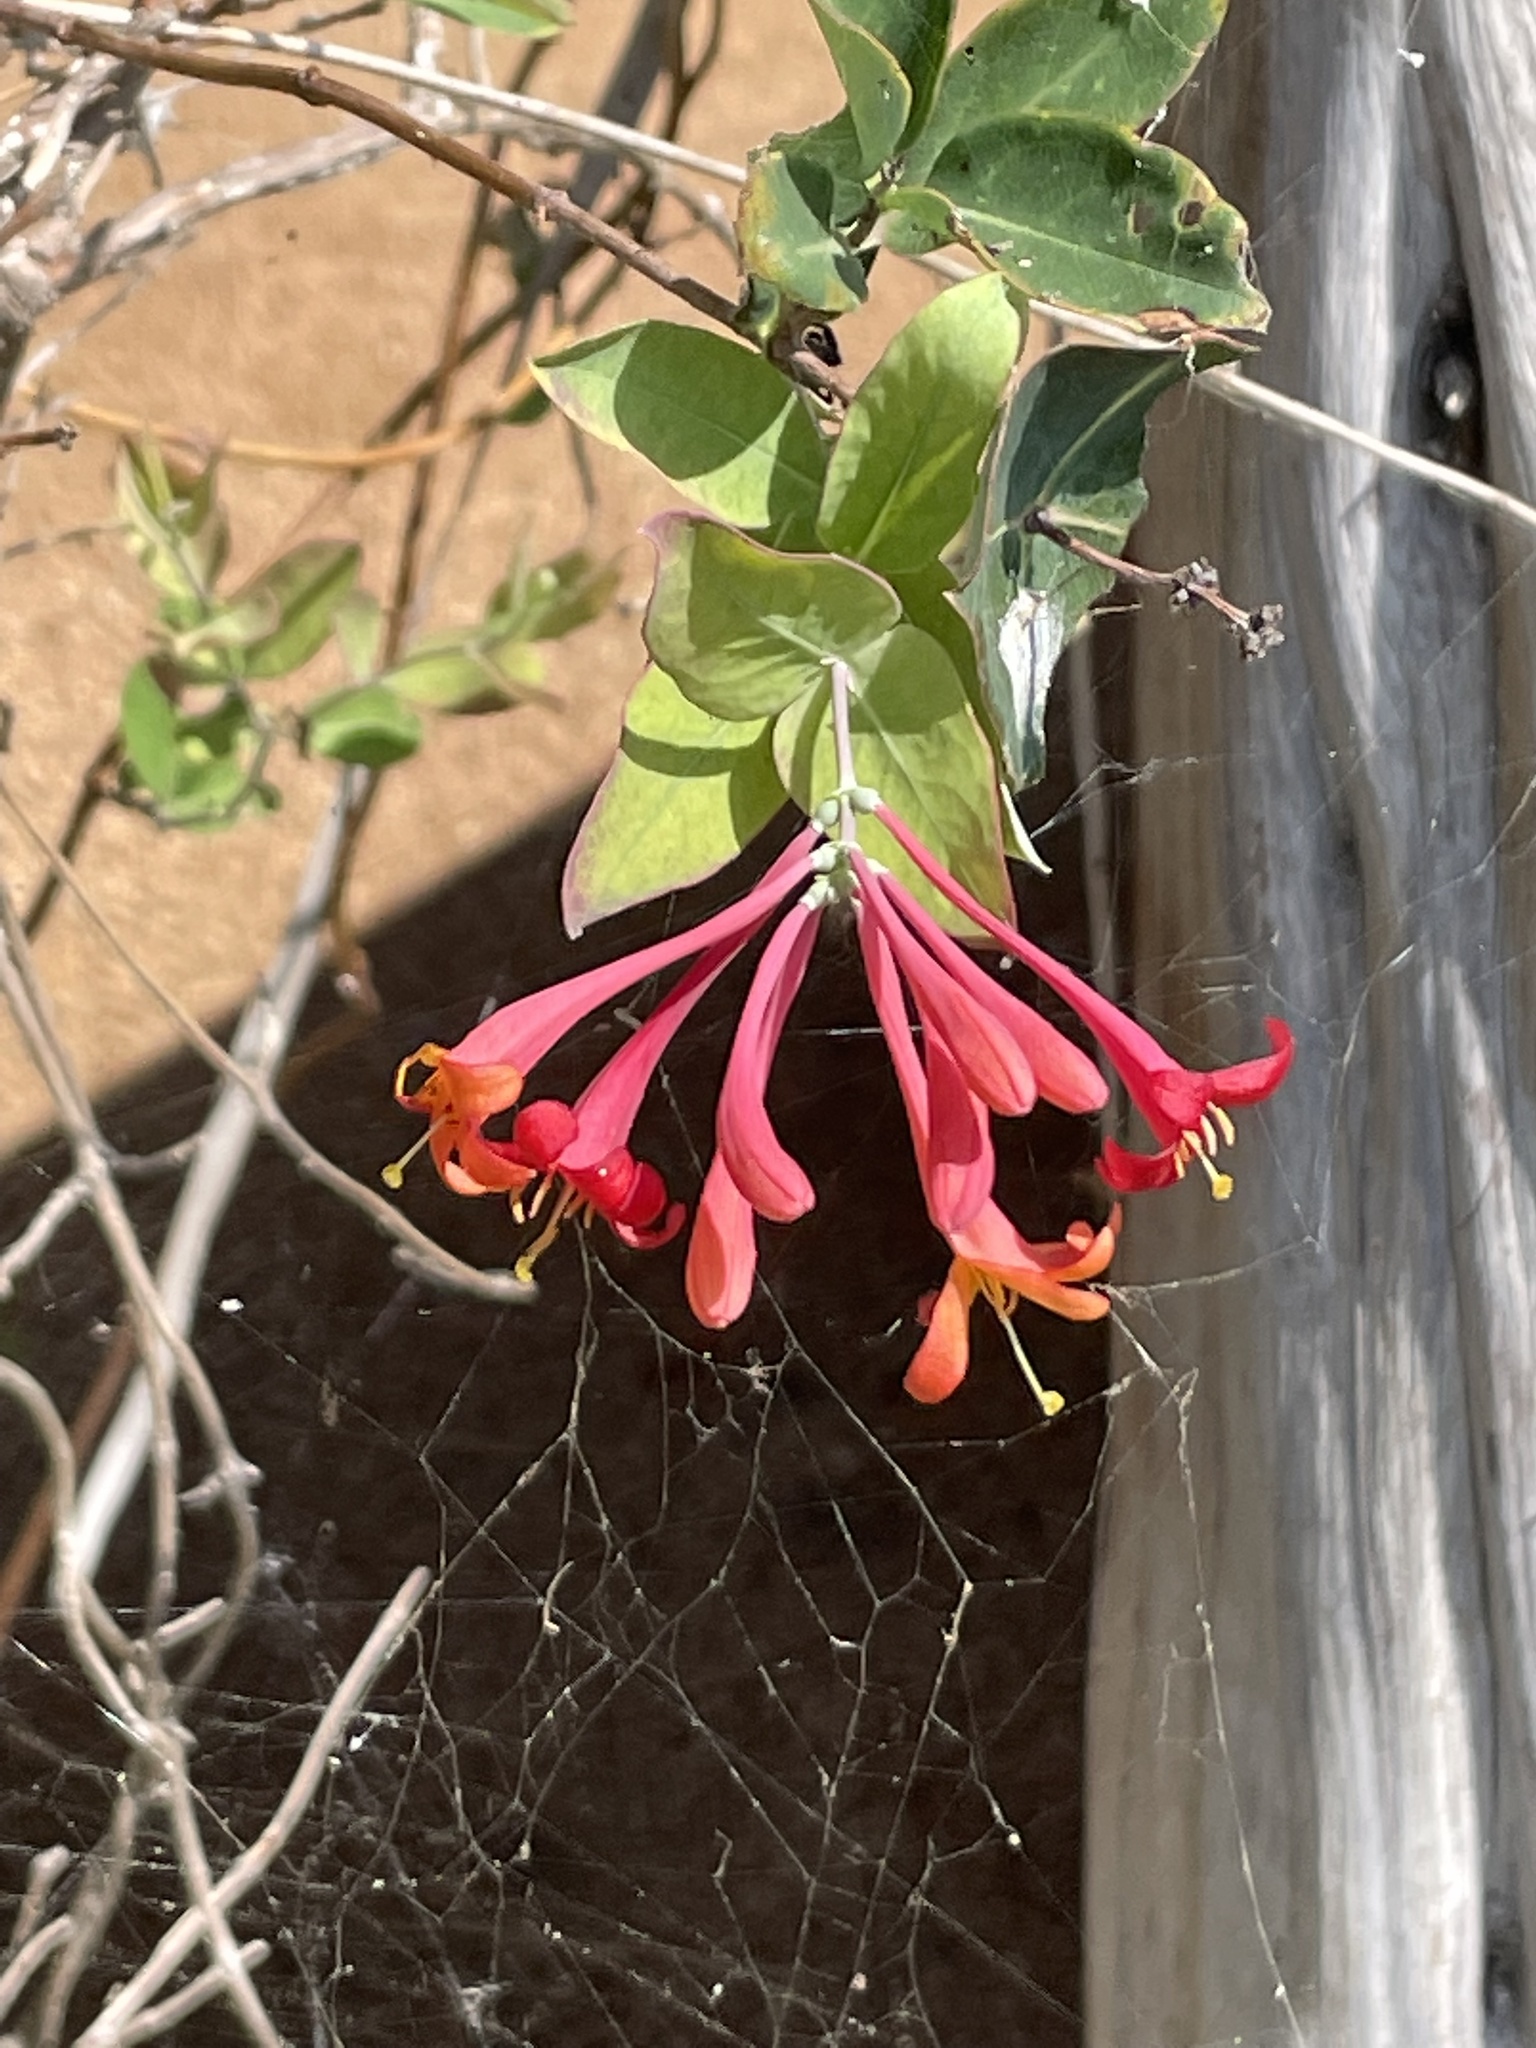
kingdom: Plantae
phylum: Tracheophyta
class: Magnoliopsida
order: Dipsacales
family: Caprifoliaceae
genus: Lonicera
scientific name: Lonicera sempervirens
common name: Coral honeysuckle
